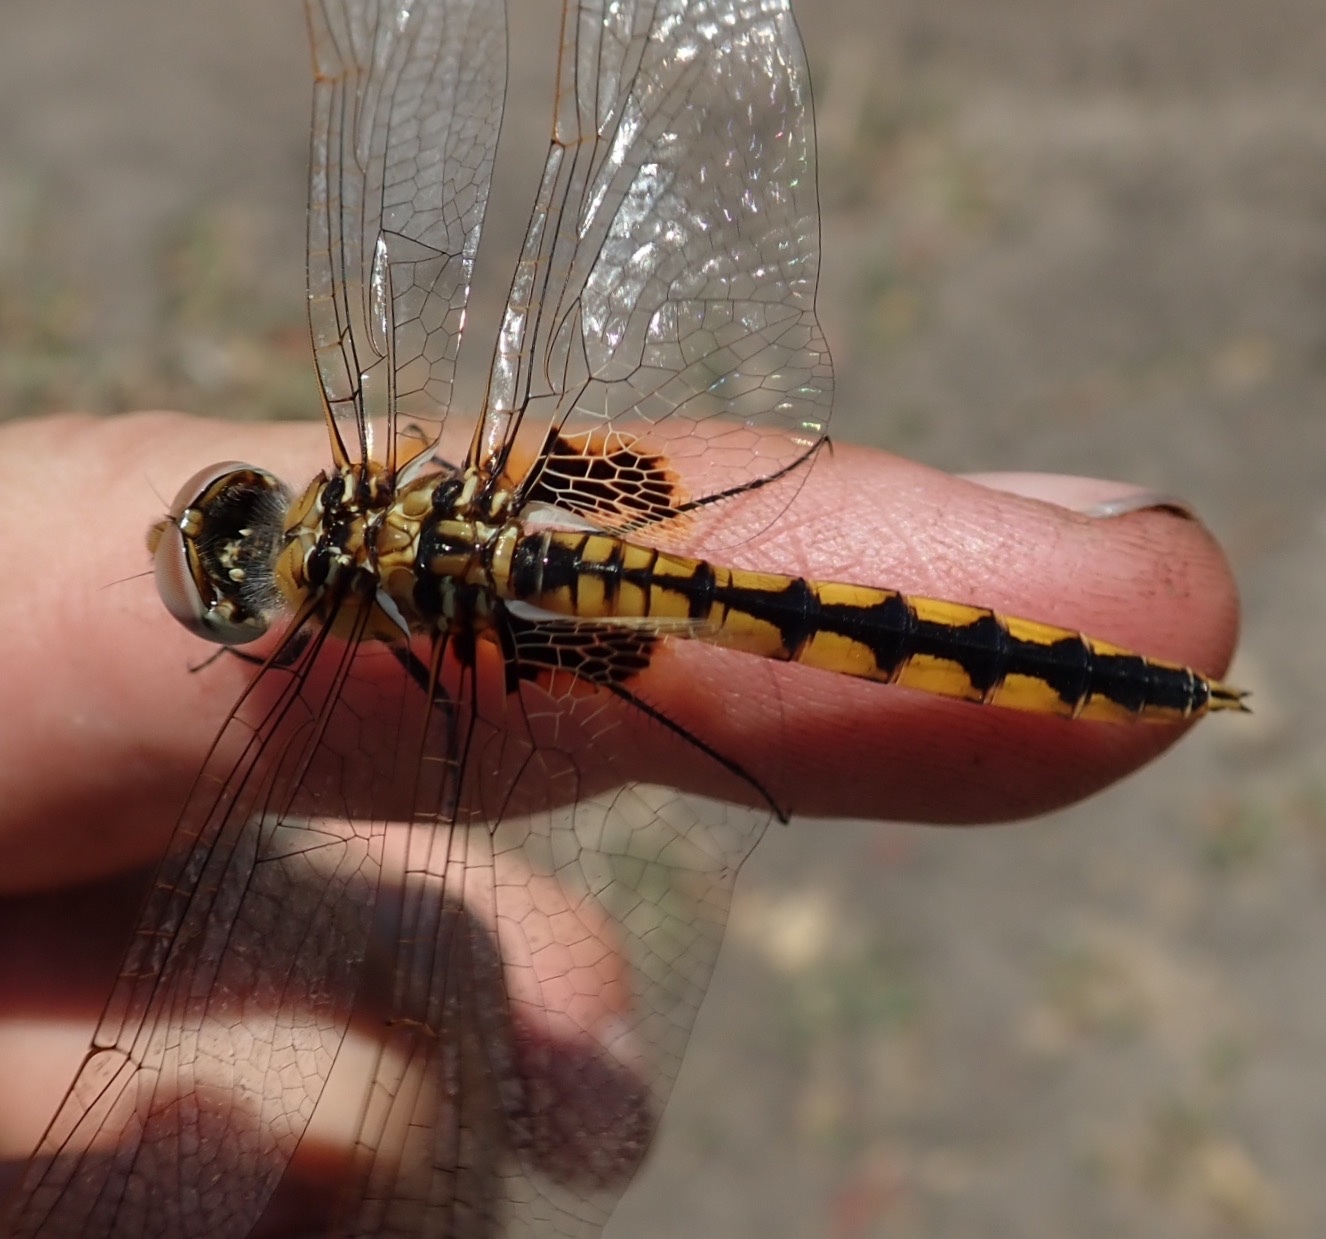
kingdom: Animalia
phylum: Arthropoda
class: Insecta
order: Odonata
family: Libellulidae
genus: Urothemis
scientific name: Urothemis edwardsii
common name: Blue basker
